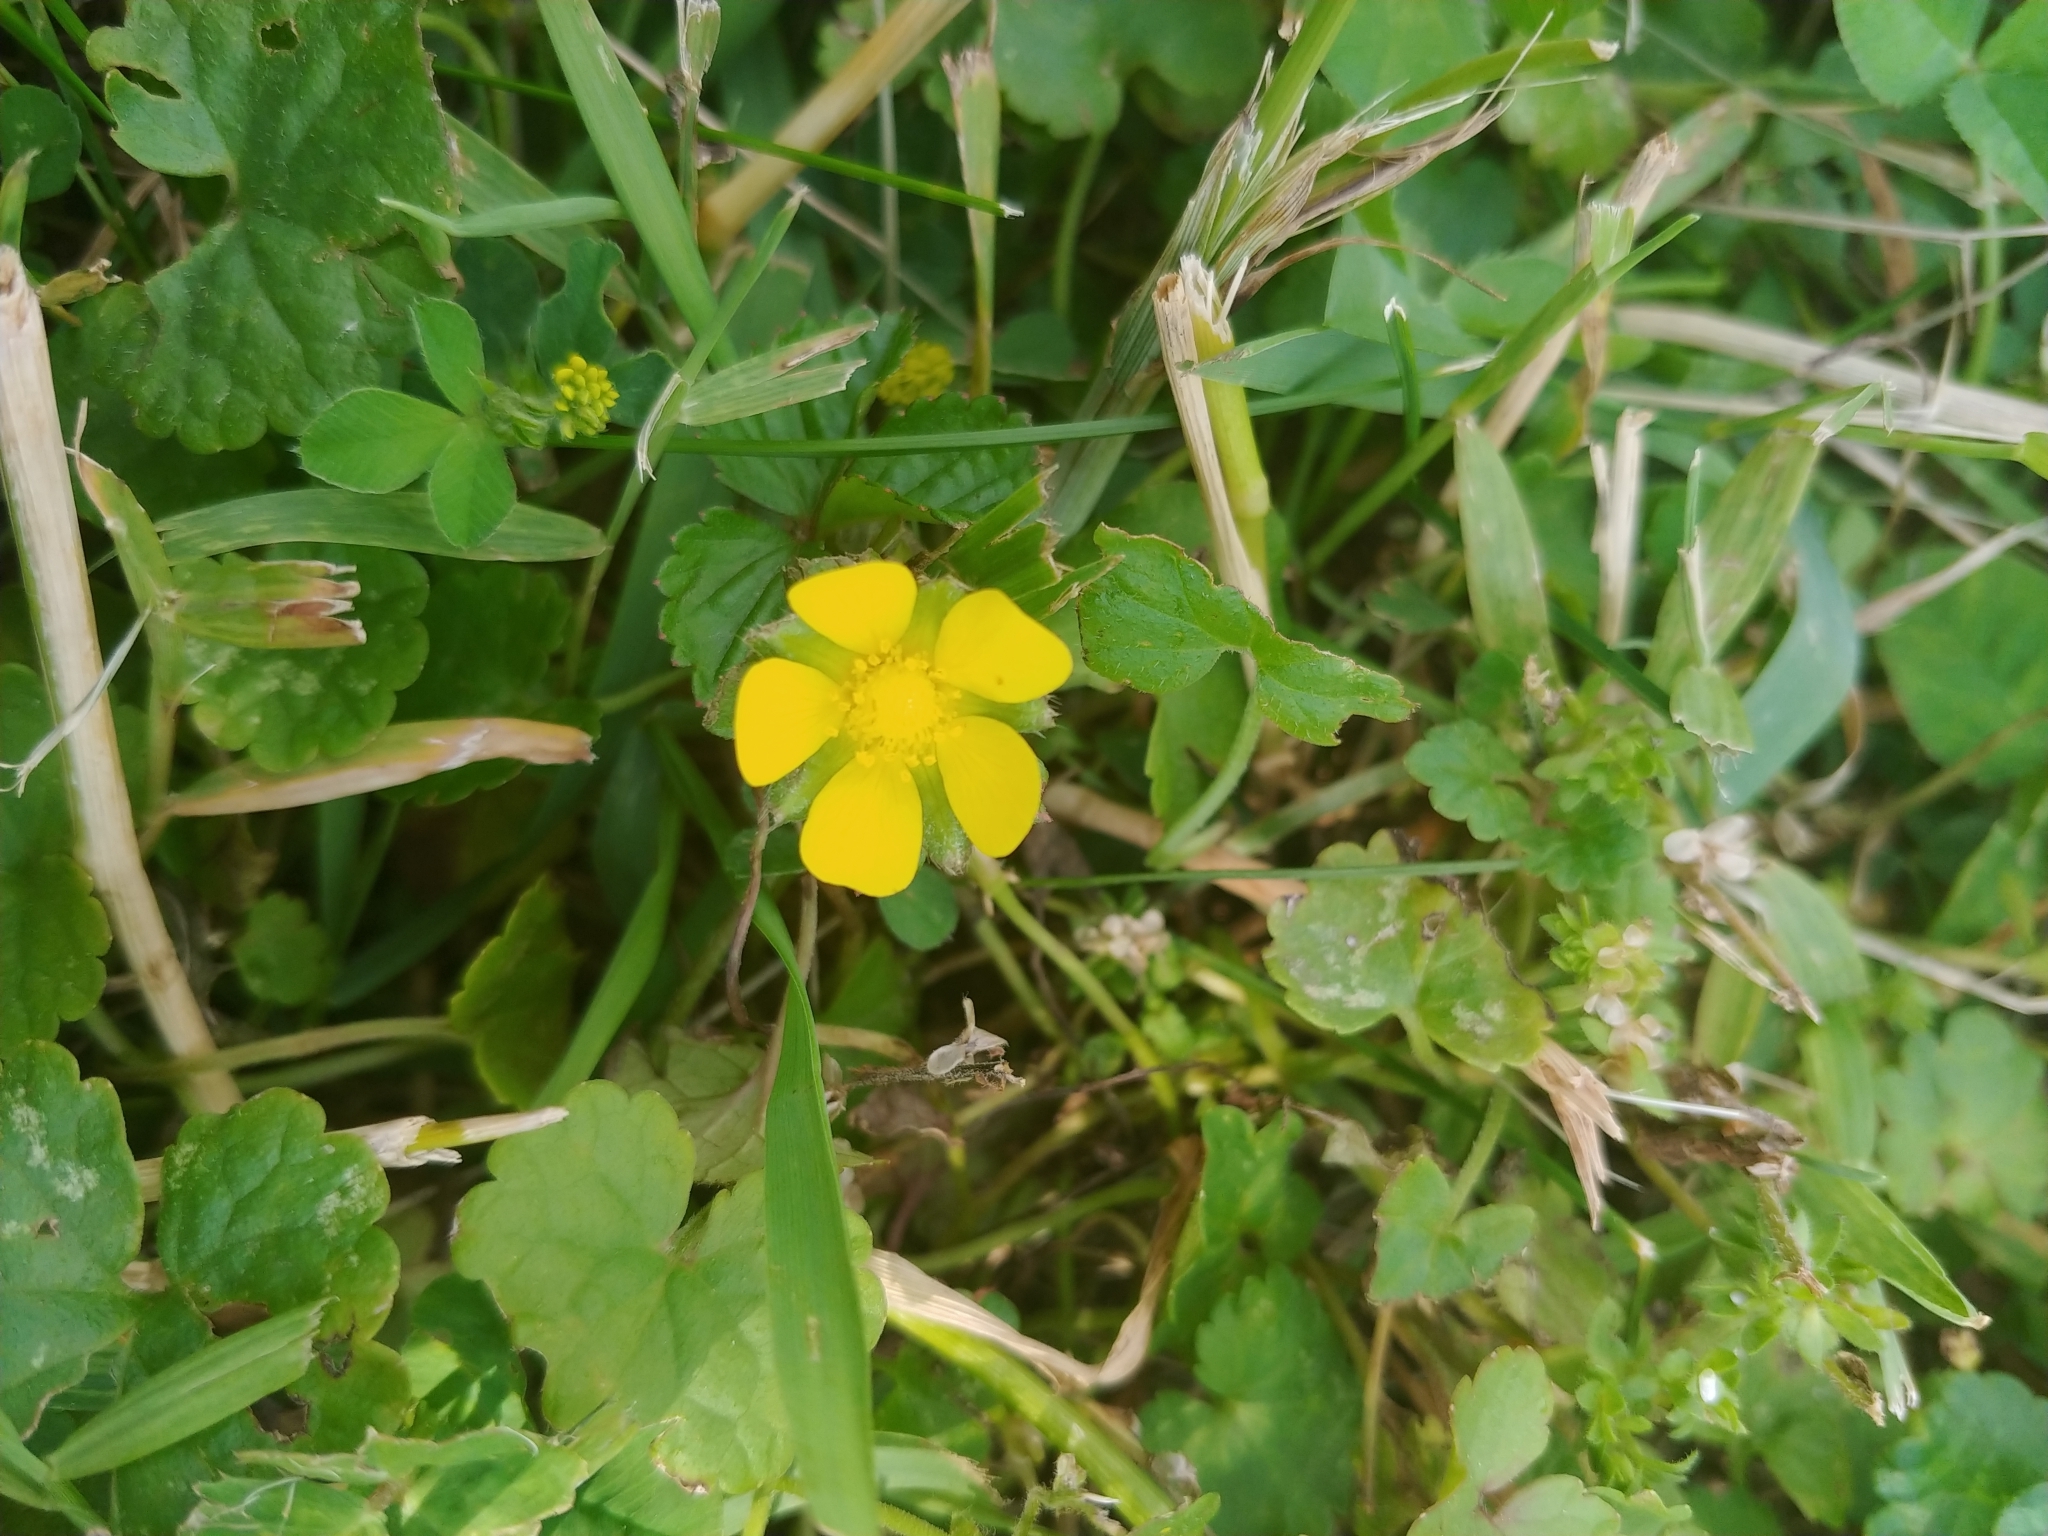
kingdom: Plantae
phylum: Tracheophyta
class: Magnoliopsida
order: Rosales
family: Rosaceae
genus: Potentilla
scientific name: Potentilla indica
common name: Yellow-flowered strawberry
